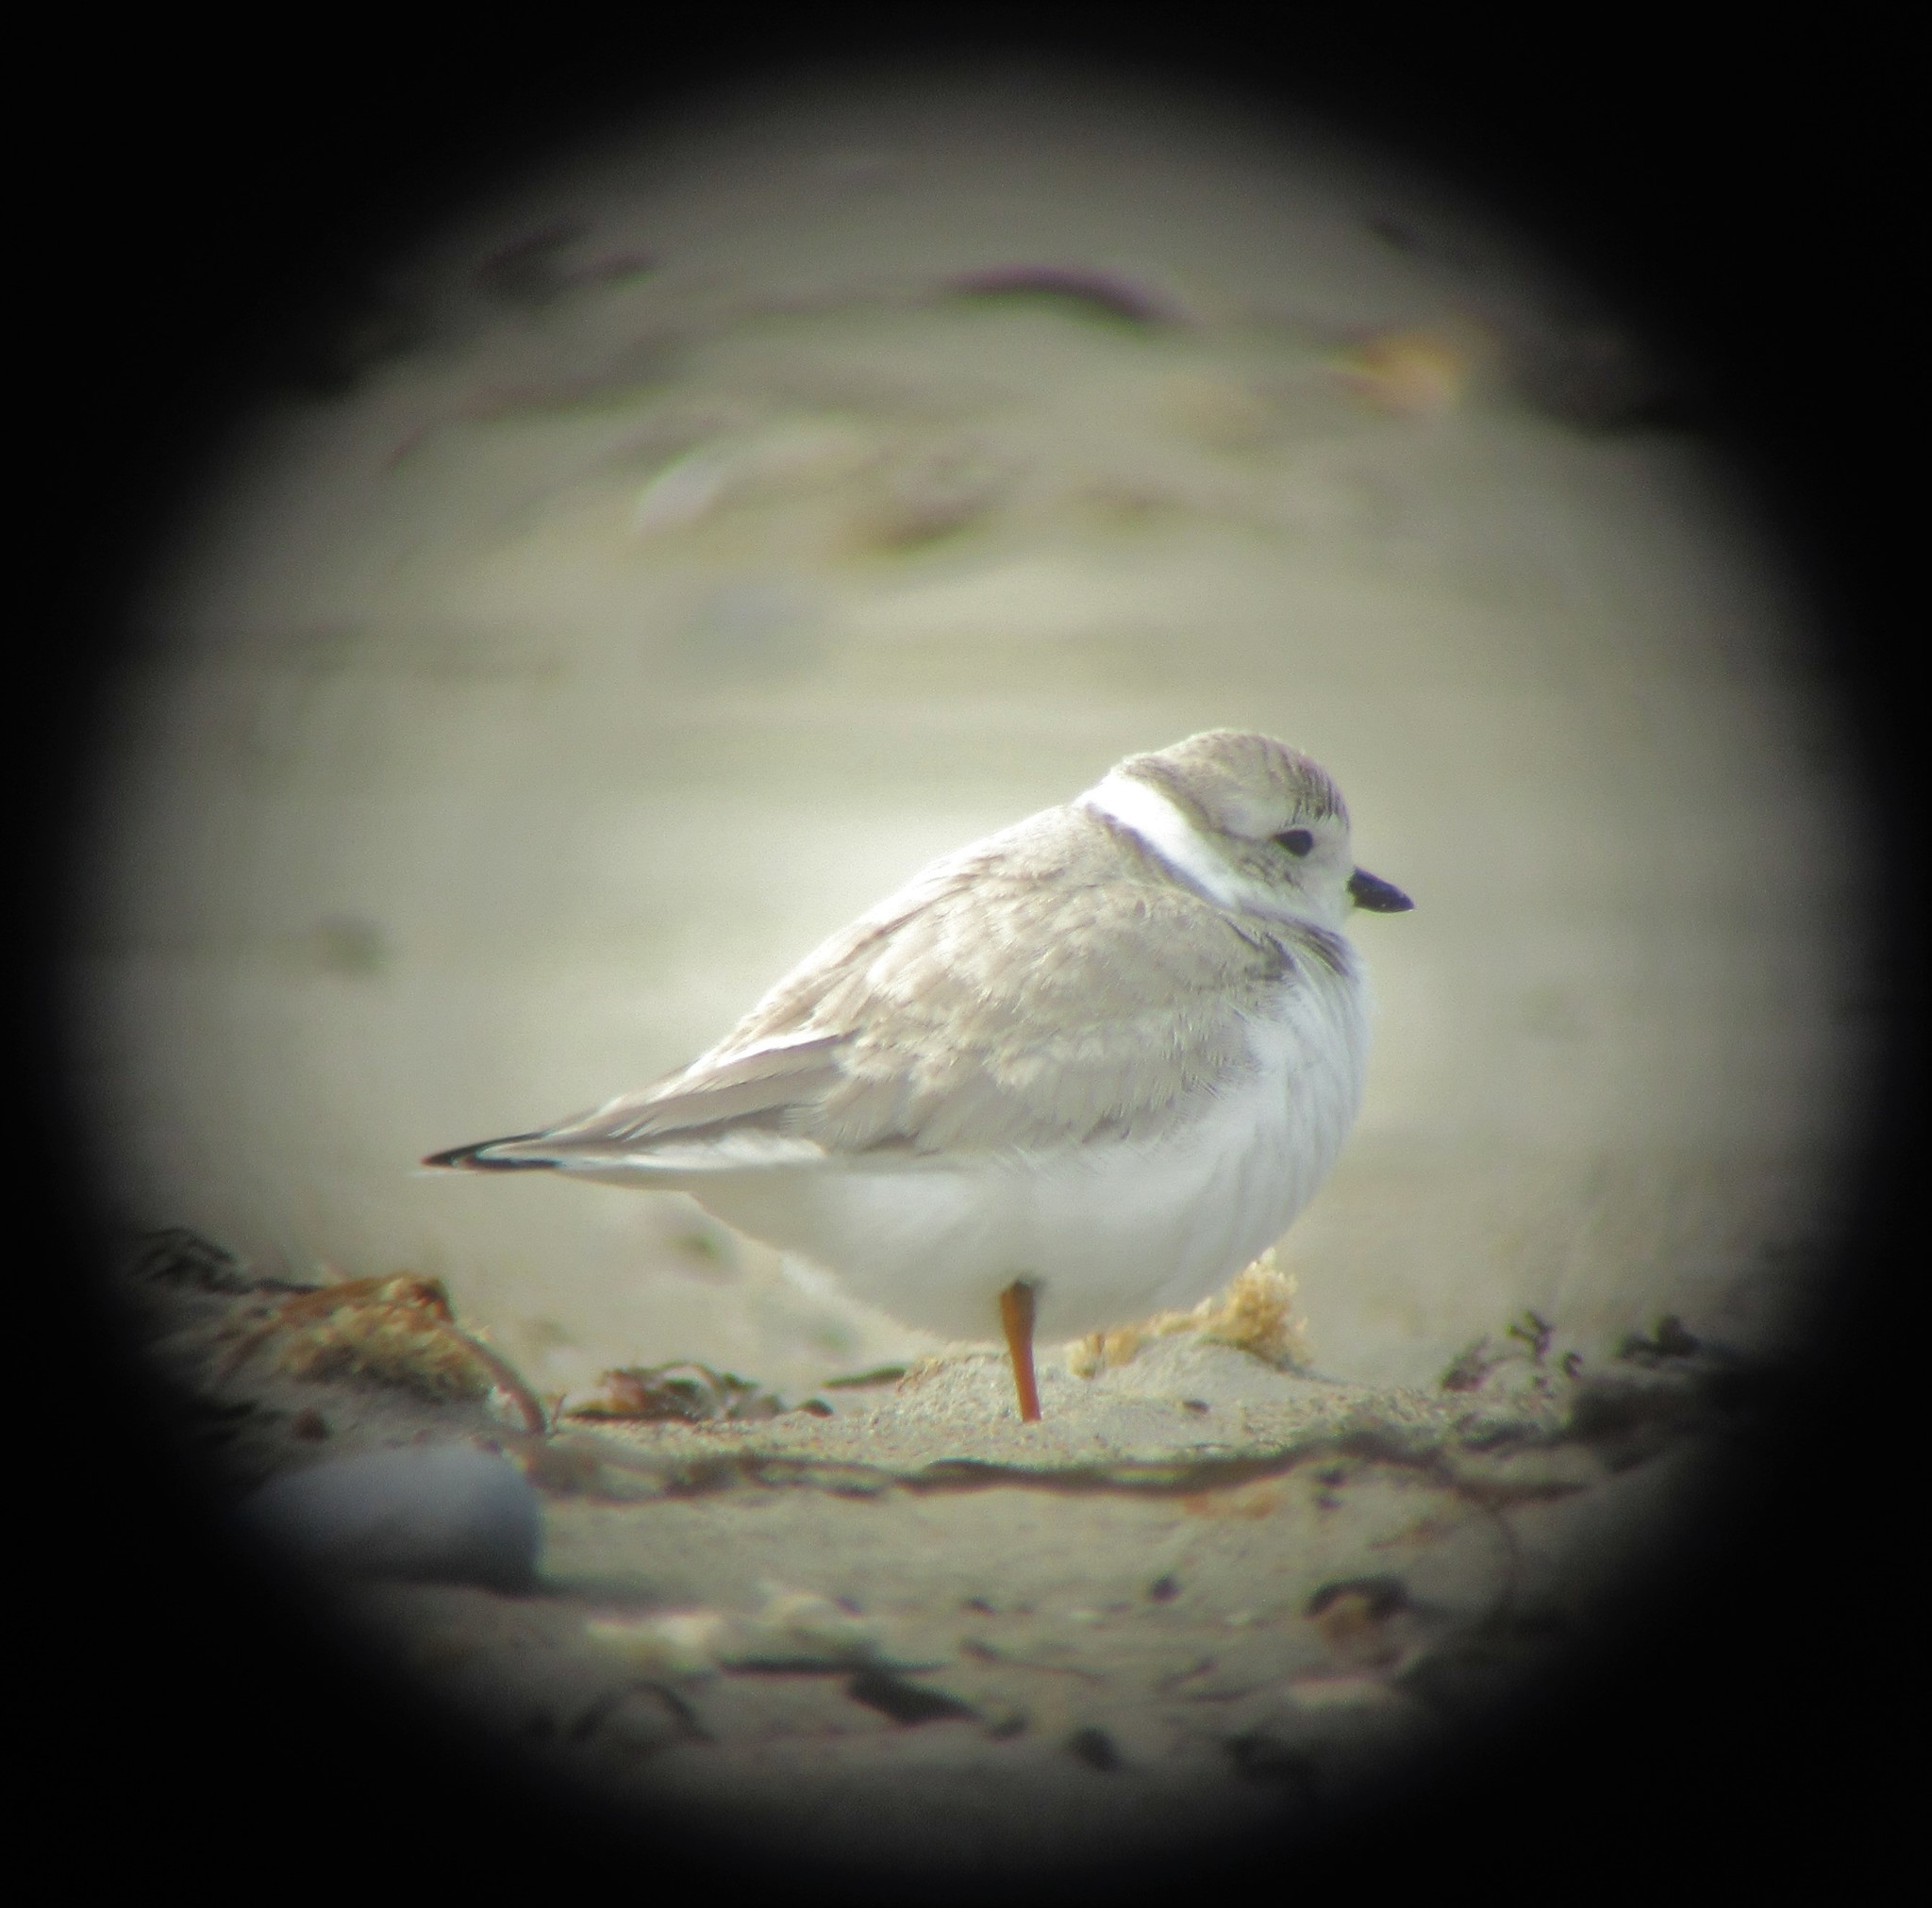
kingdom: Animalia
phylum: Chordata
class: Aves
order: Charadriiformes
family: Charadriidae
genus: Charadrius
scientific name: Charadrius melodus
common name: Piping plover
